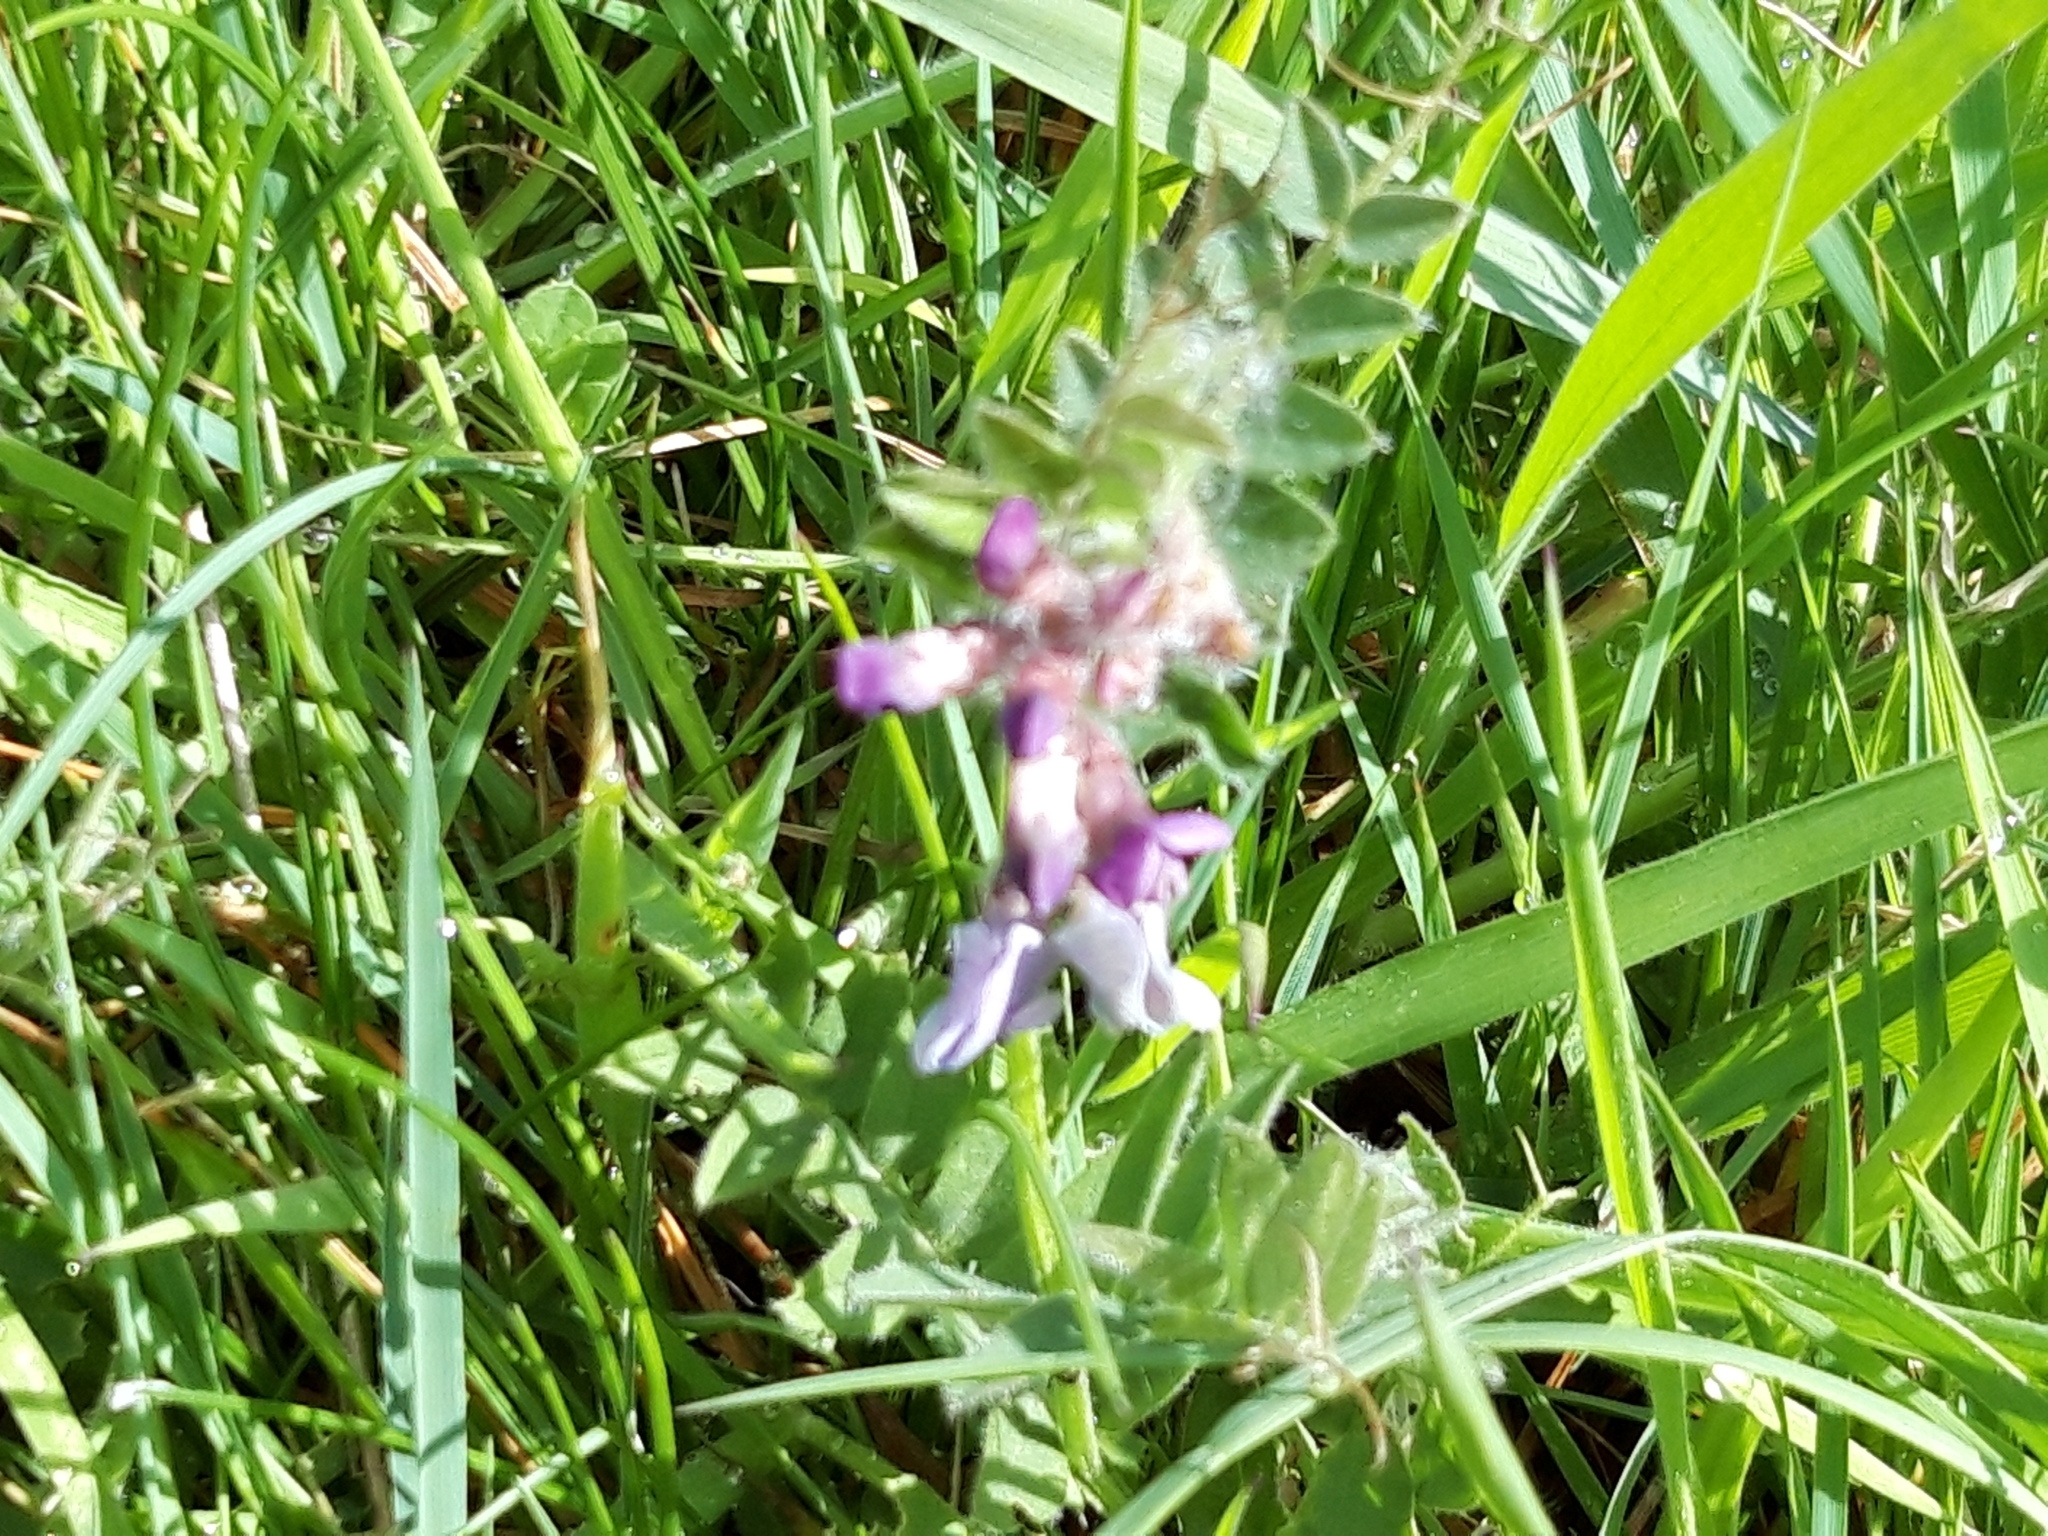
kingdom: Plantae
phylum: Tracheophyta
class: Magnoliopsida
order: Fabales
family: Fabaceae
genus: Vicia
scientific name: Vicia sepium
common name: Bush vetch
